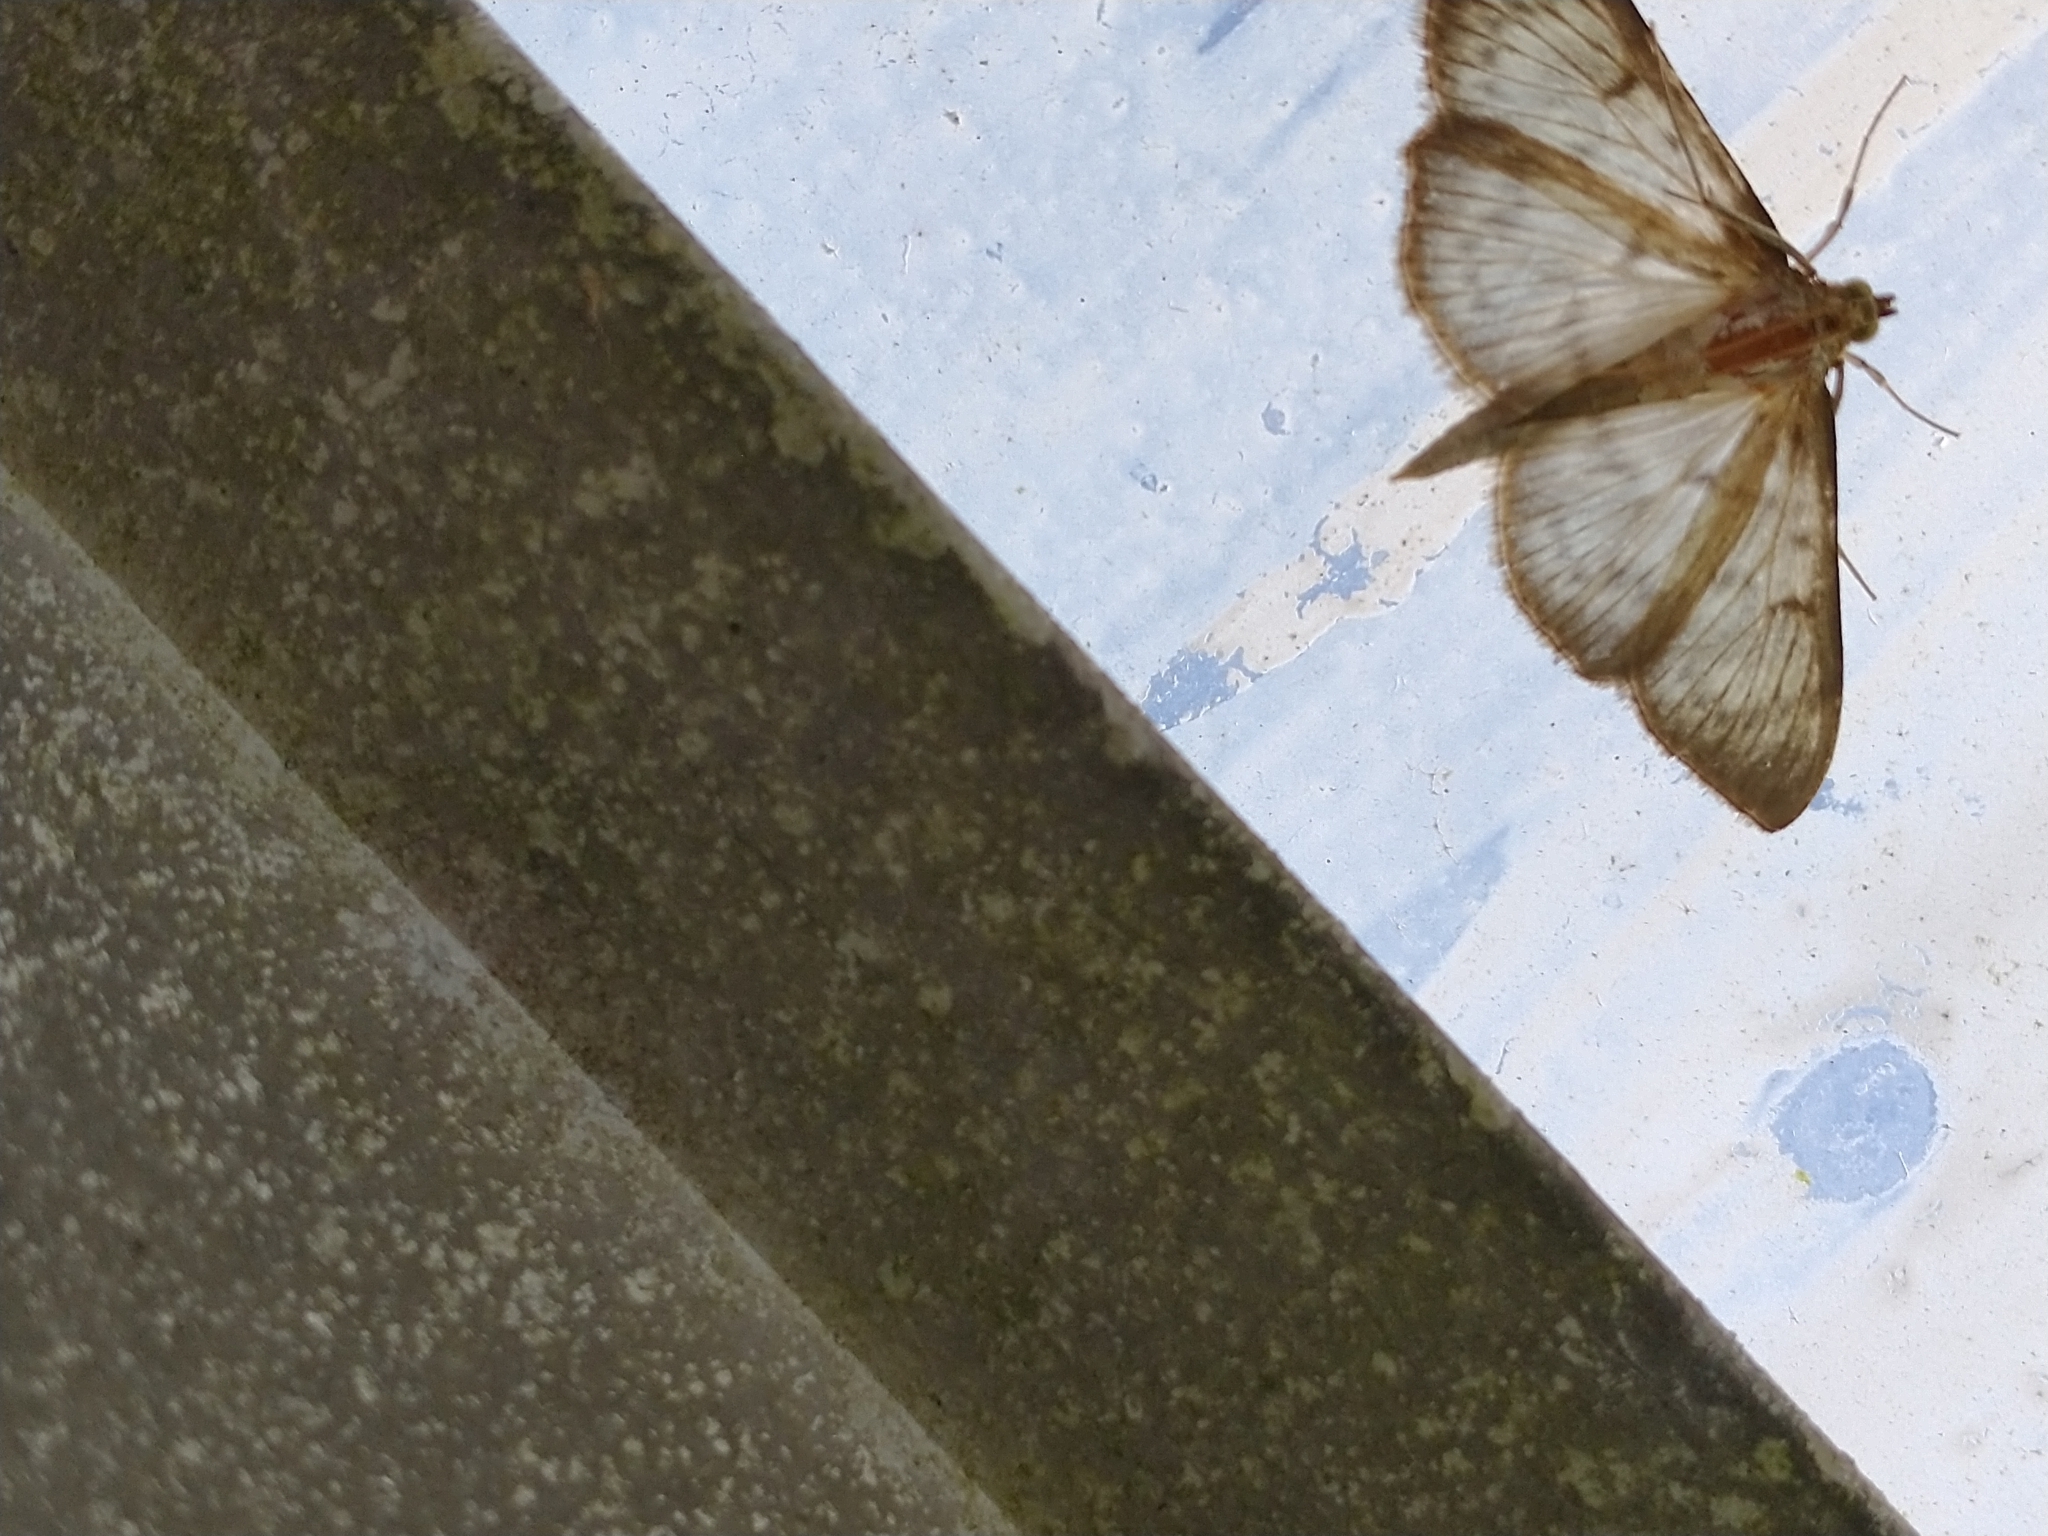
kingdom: Animalia
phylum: Arthropoda
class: Insecta
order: Lepidoptera
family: Crambidae
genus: Patania
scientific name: Patania ruralis
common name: Mother of pearl
